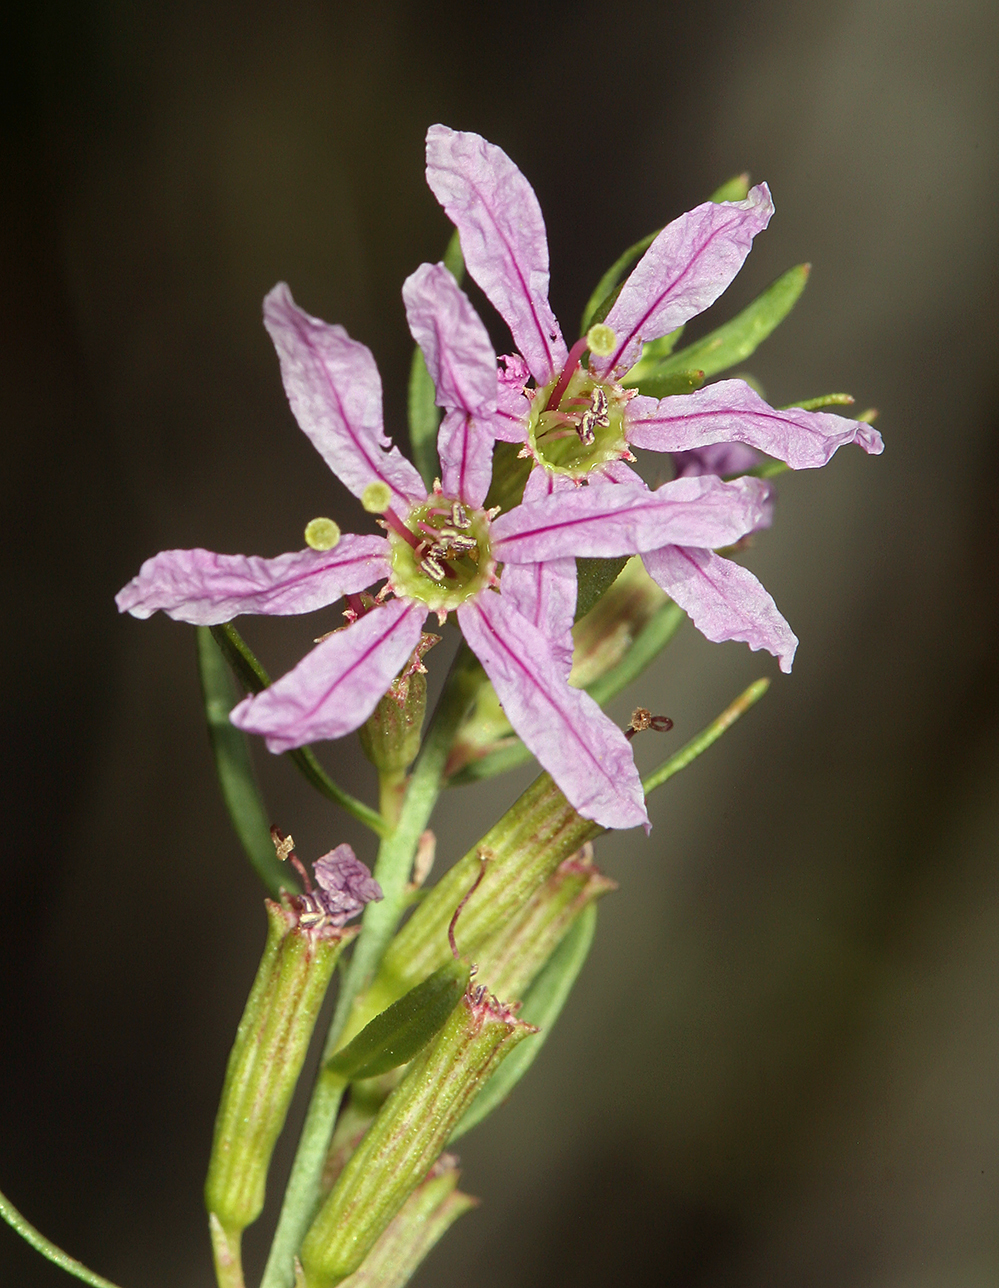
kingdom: Plantae
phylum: Tracheophyta
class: Magnoliopsida
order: Myrtales
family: Lythraceae
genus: Lythrum
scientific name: Lythrum californicum
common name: California loosestrife
